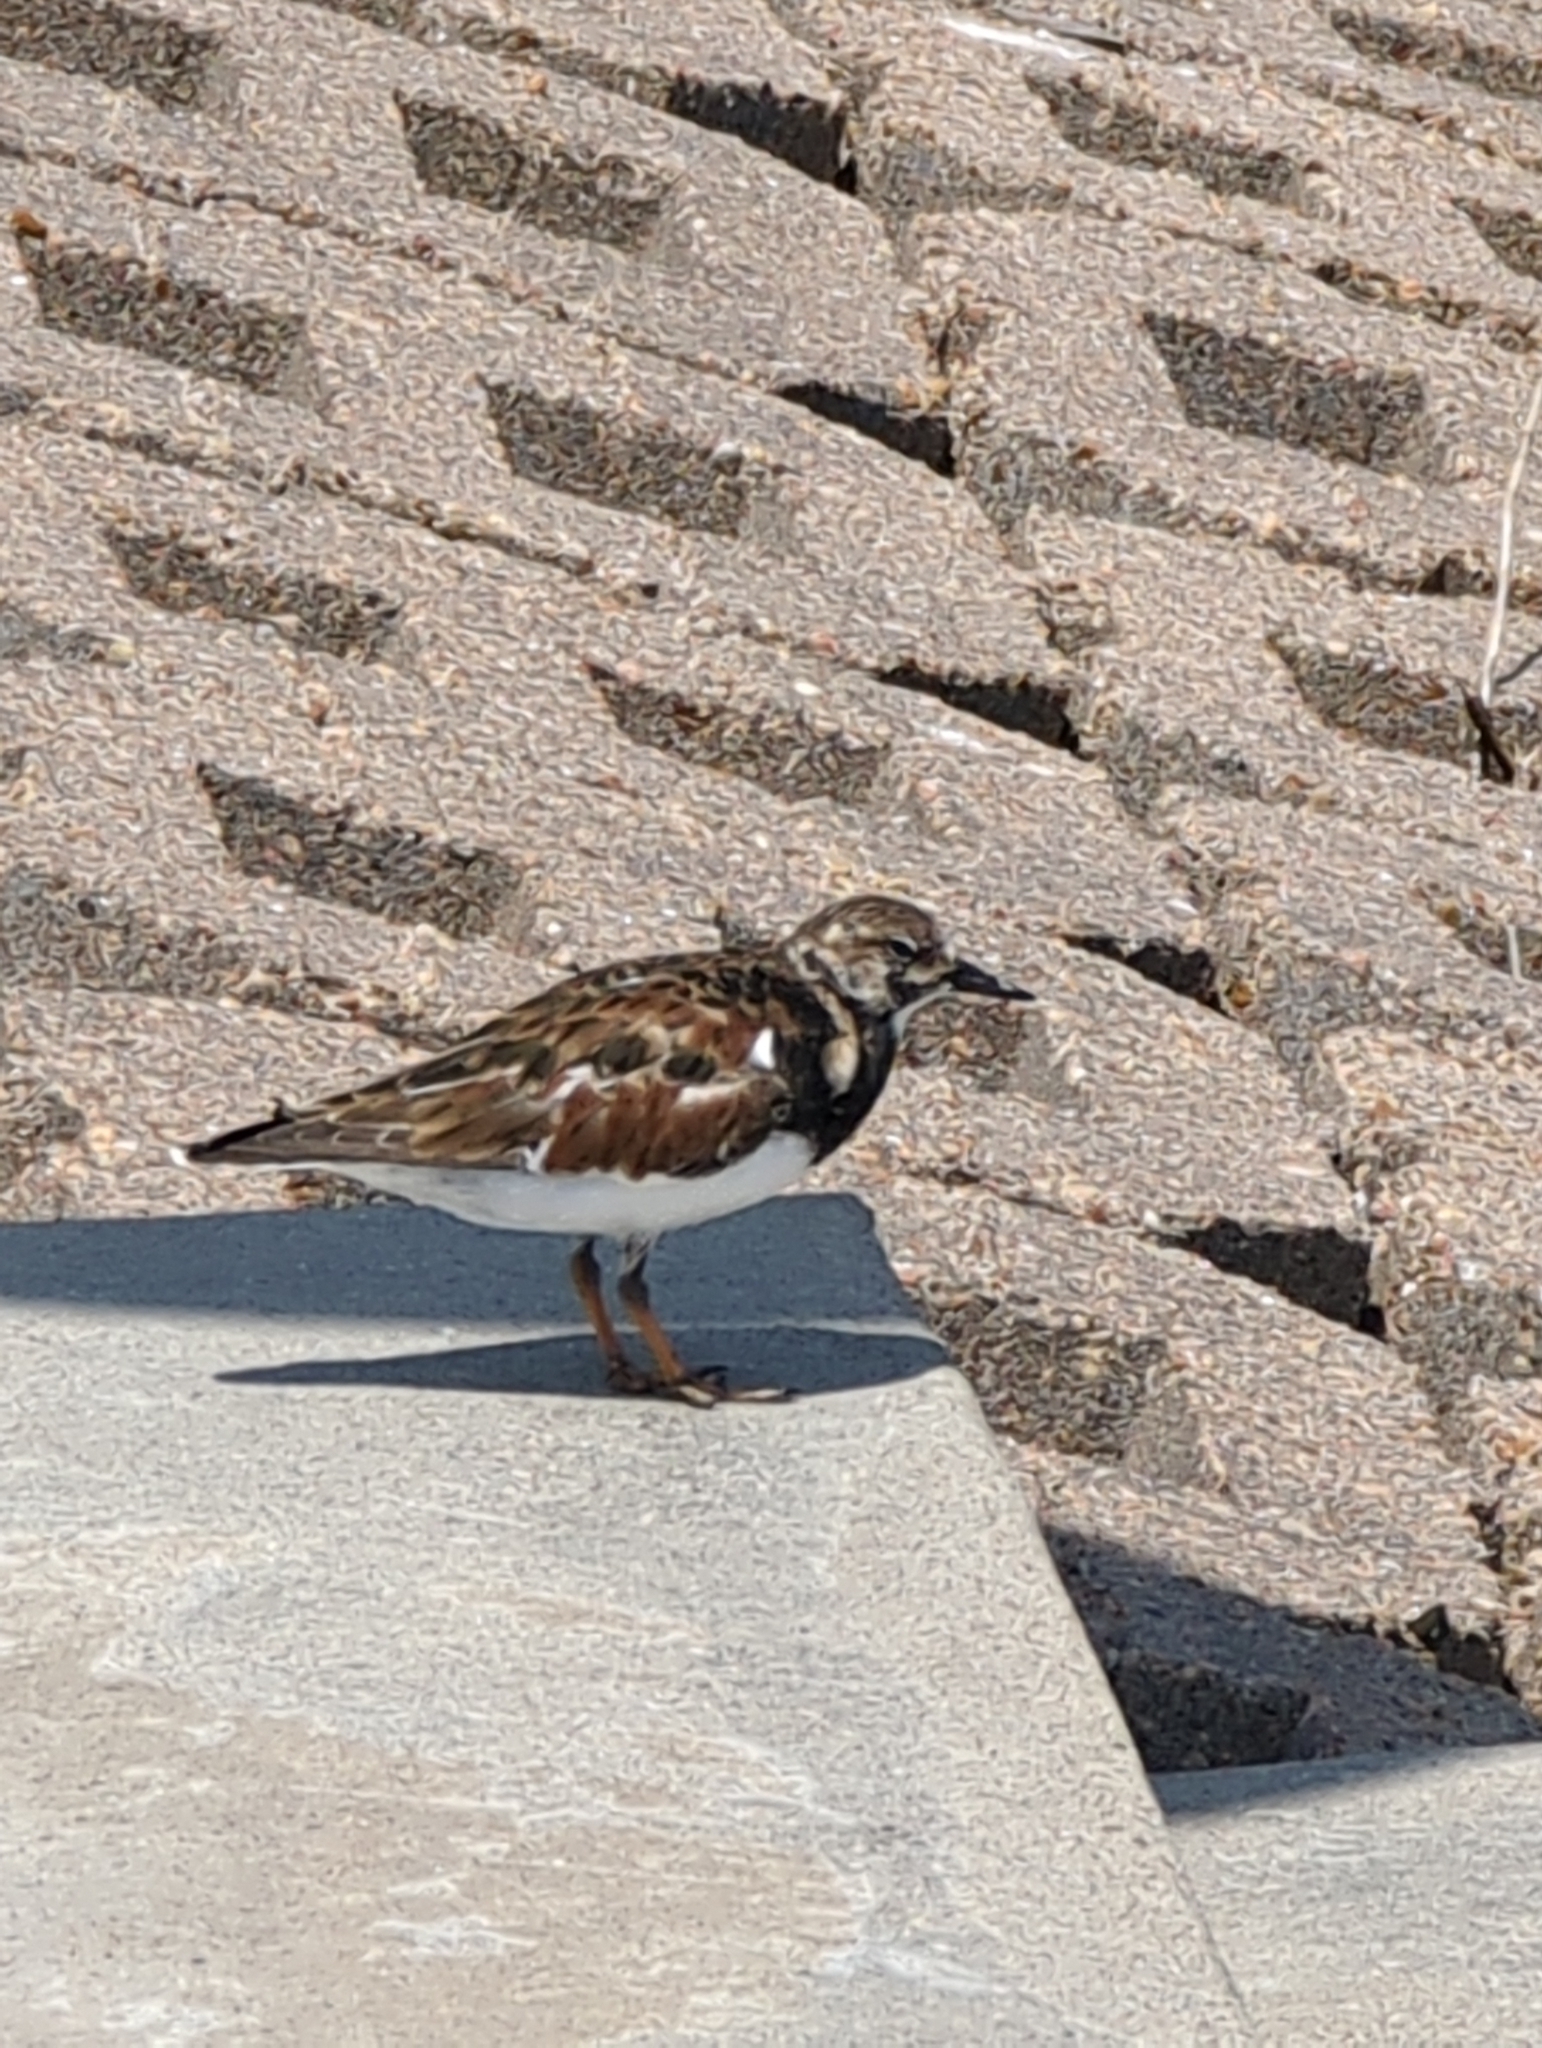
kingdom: Animalia
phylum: Chordata
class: Aves
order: Charadriiformes
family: Scolopacidae
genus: Arenaria
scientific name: Arenaria interpres
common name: Ruddy turnstone
